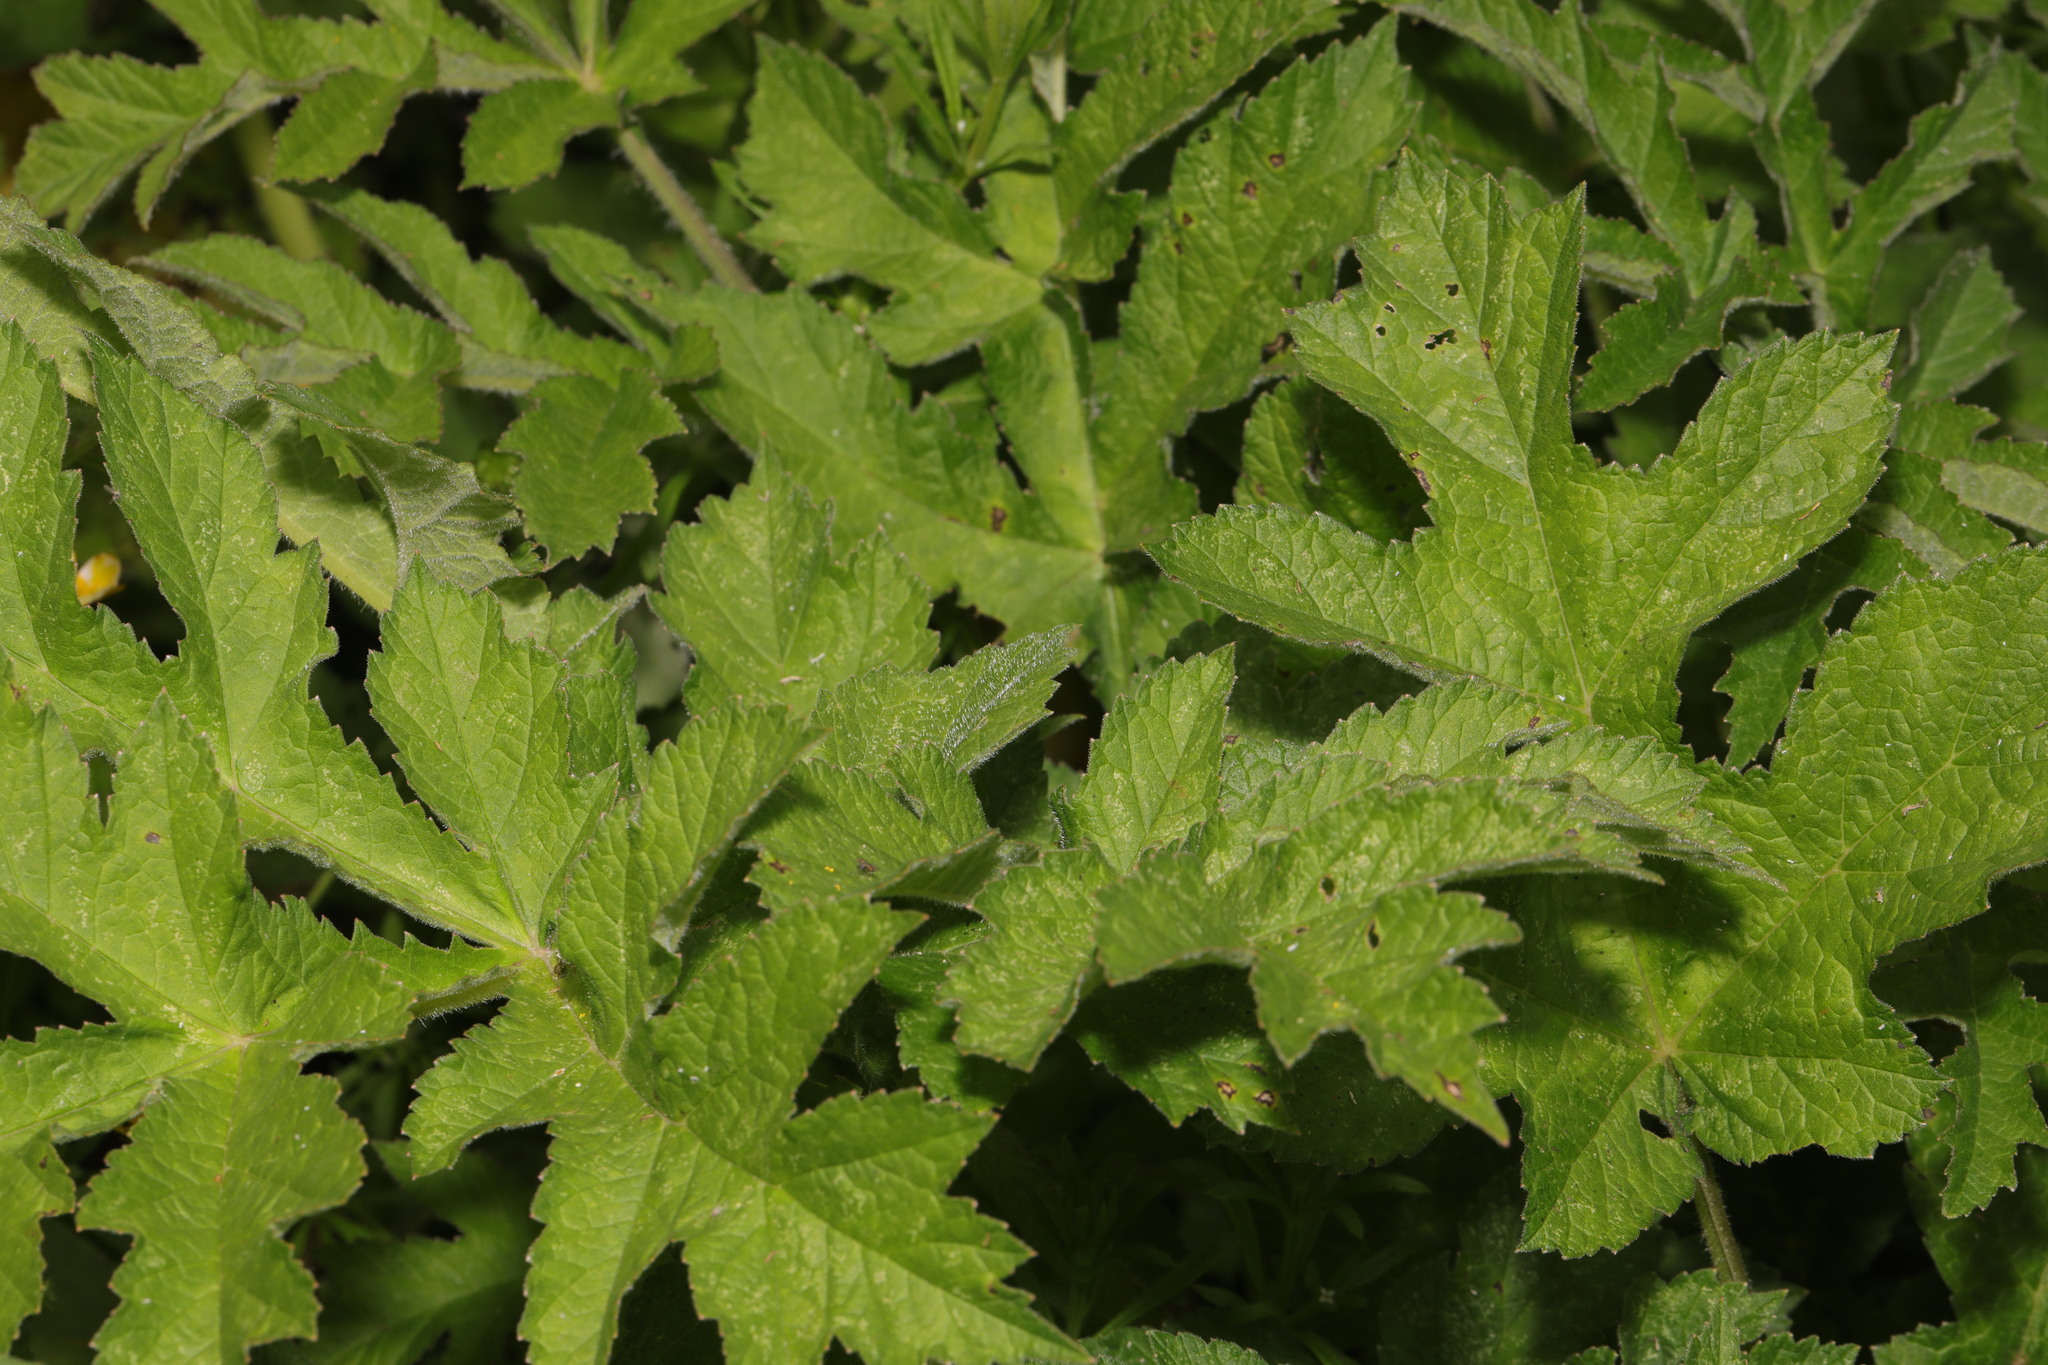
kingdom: Plantae
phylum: Tracheophyta
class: Magnoliopsida
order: Apiales
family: Apiaceae
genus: Heracleum
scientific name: Heracleum sphondylium
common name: Hogweed
